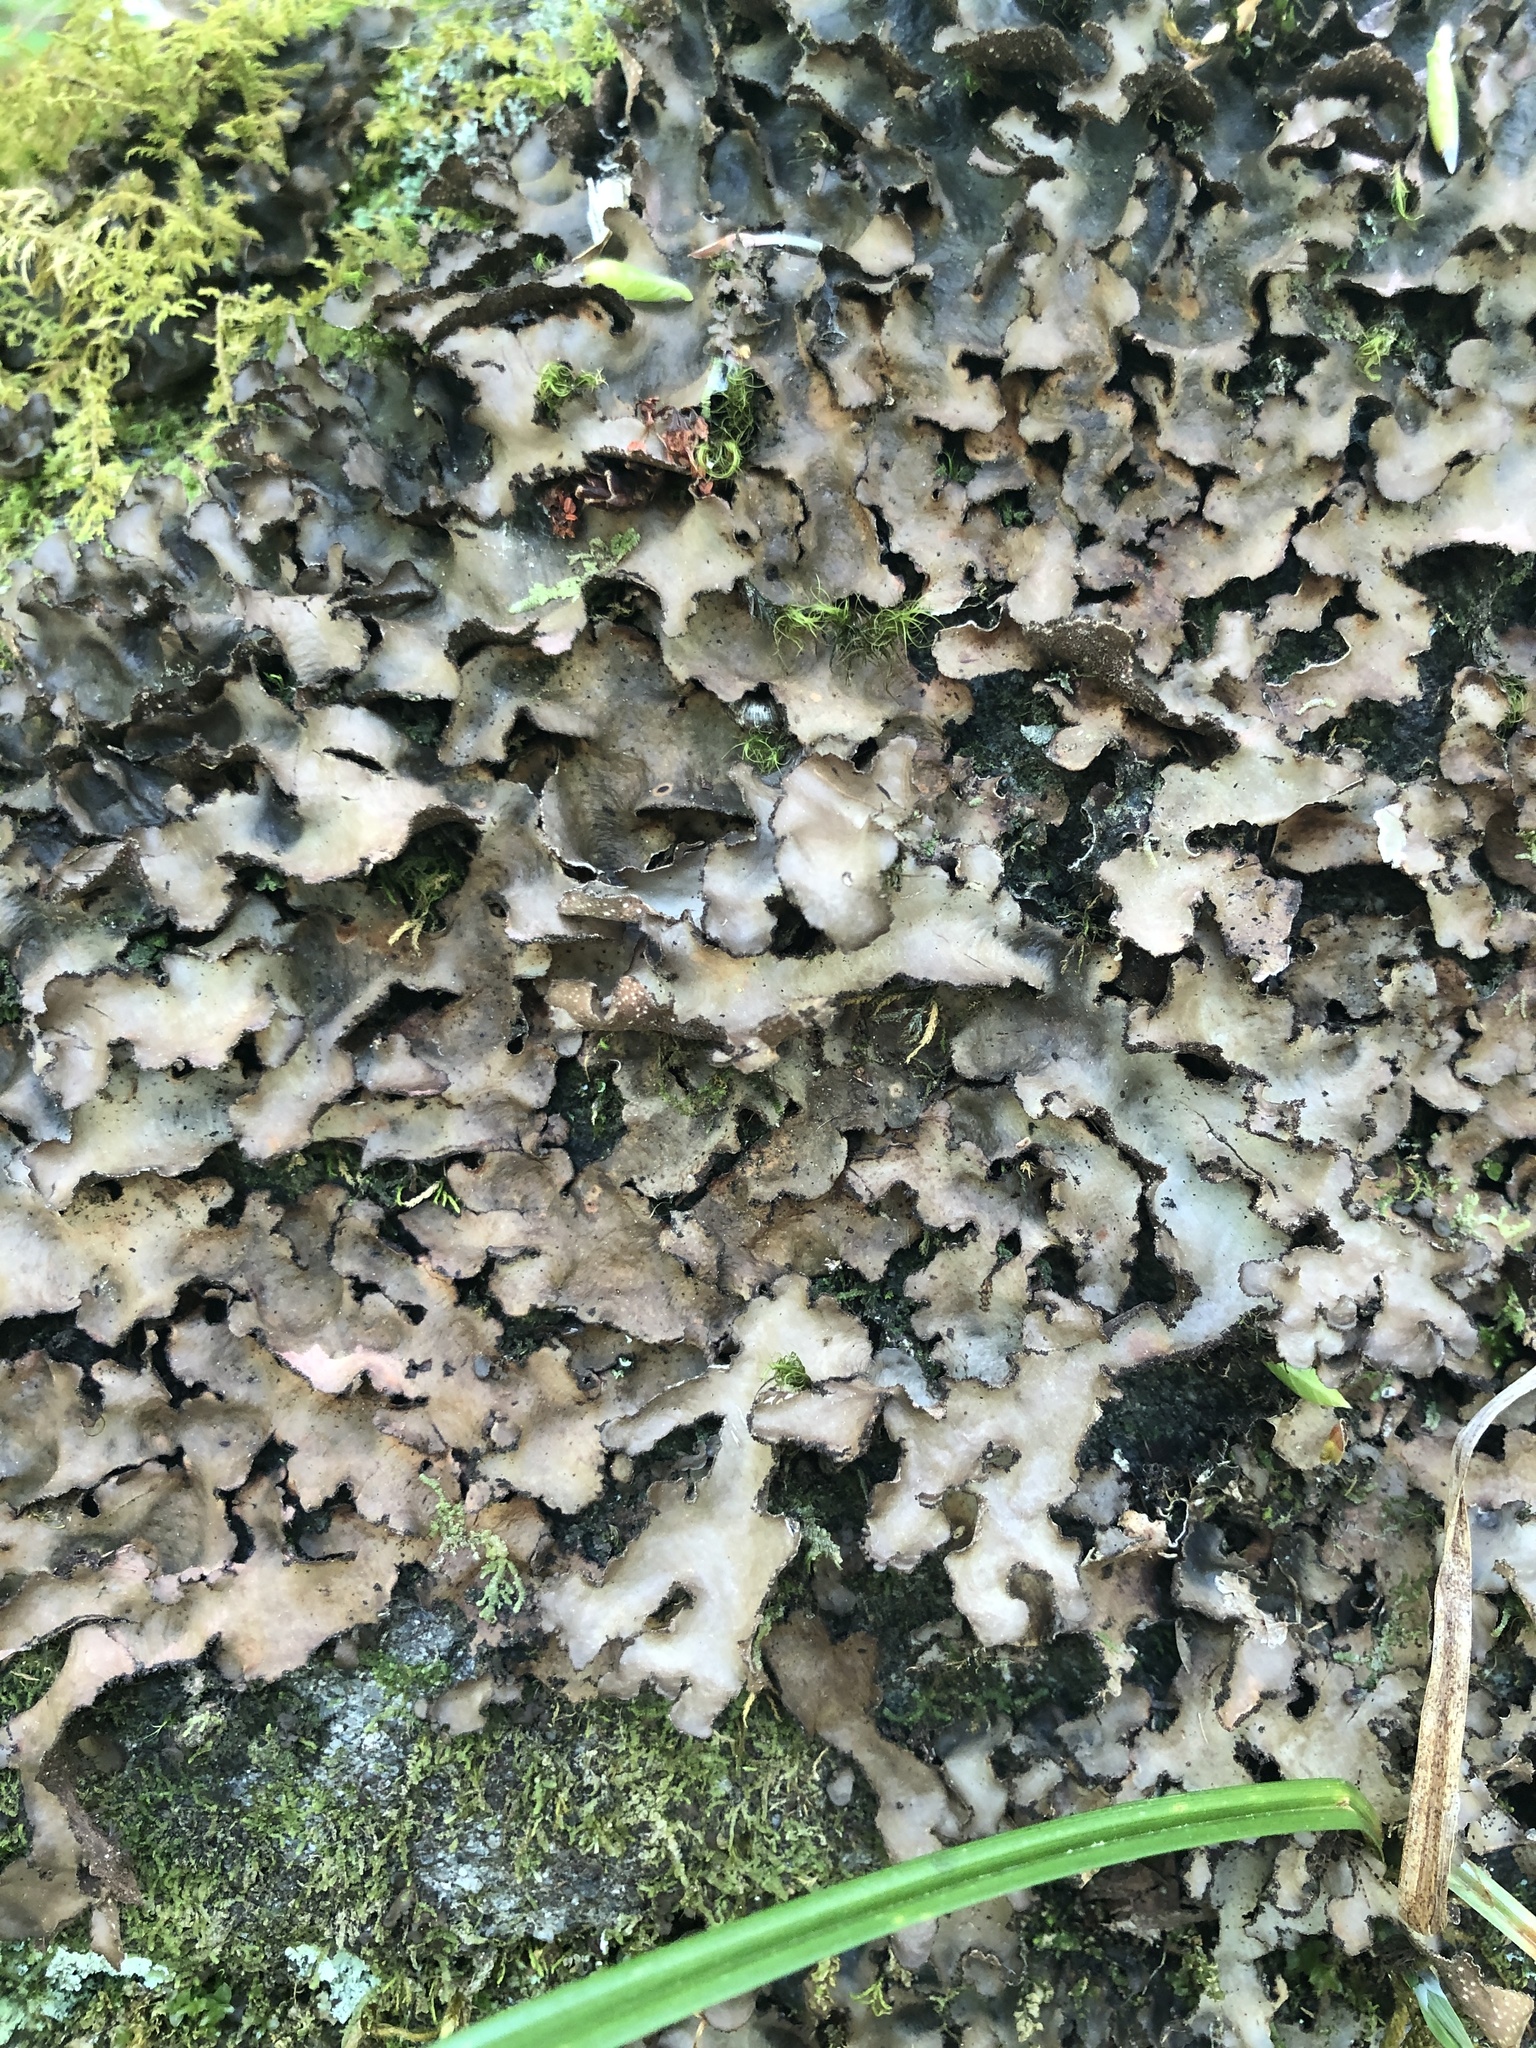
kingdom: Fungi
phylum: Ascomycota
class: Lecanoromycetes
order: Peltigerales
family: Lobariaceae
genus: Sticta
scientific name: Sticta beauvoisii
